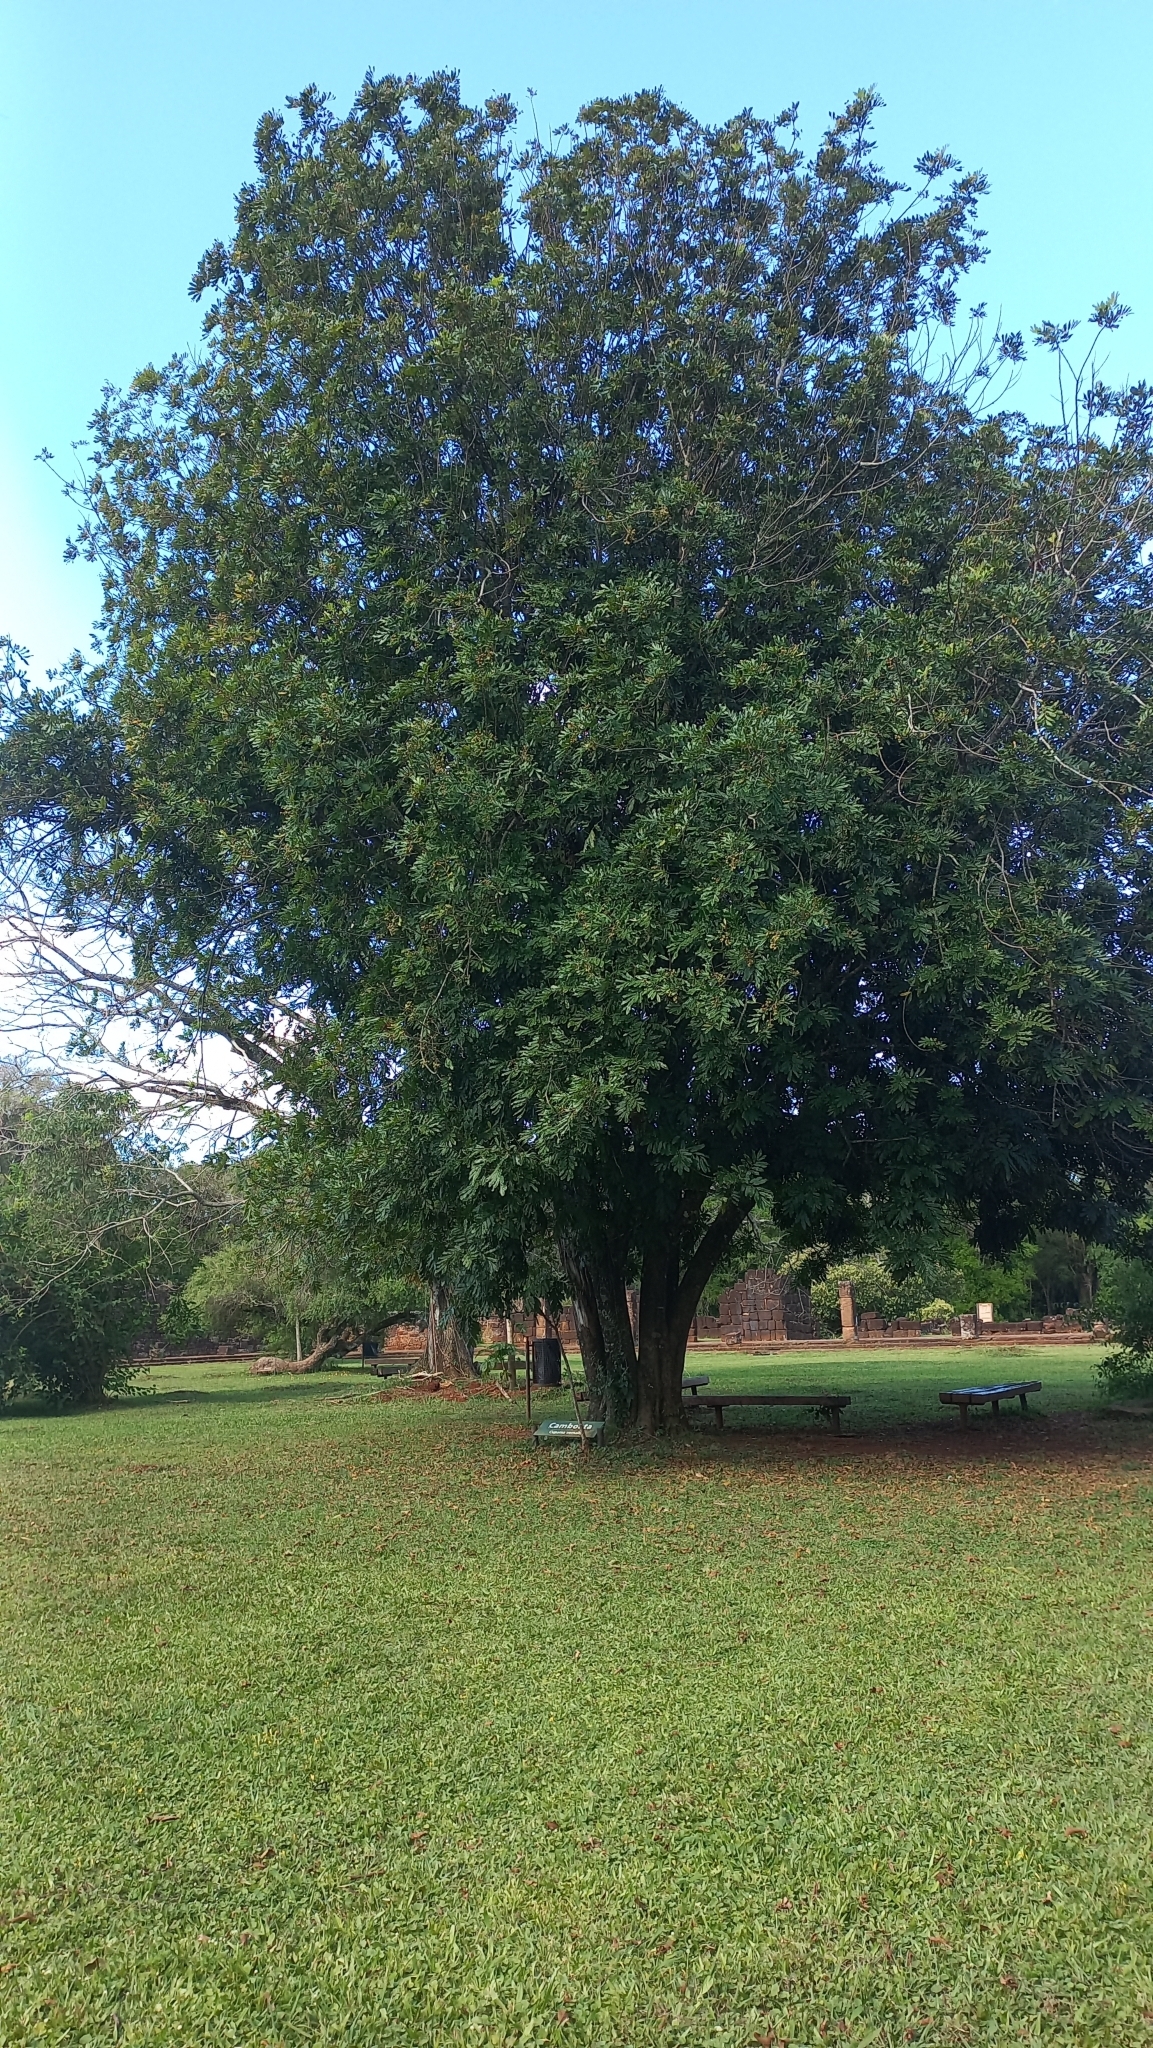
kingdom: Plantae
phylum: Tracheophyta
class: Magnoliopsida
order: Sapindales
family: Sapindaceae
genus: Cupania
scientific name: Cupania vernalis
